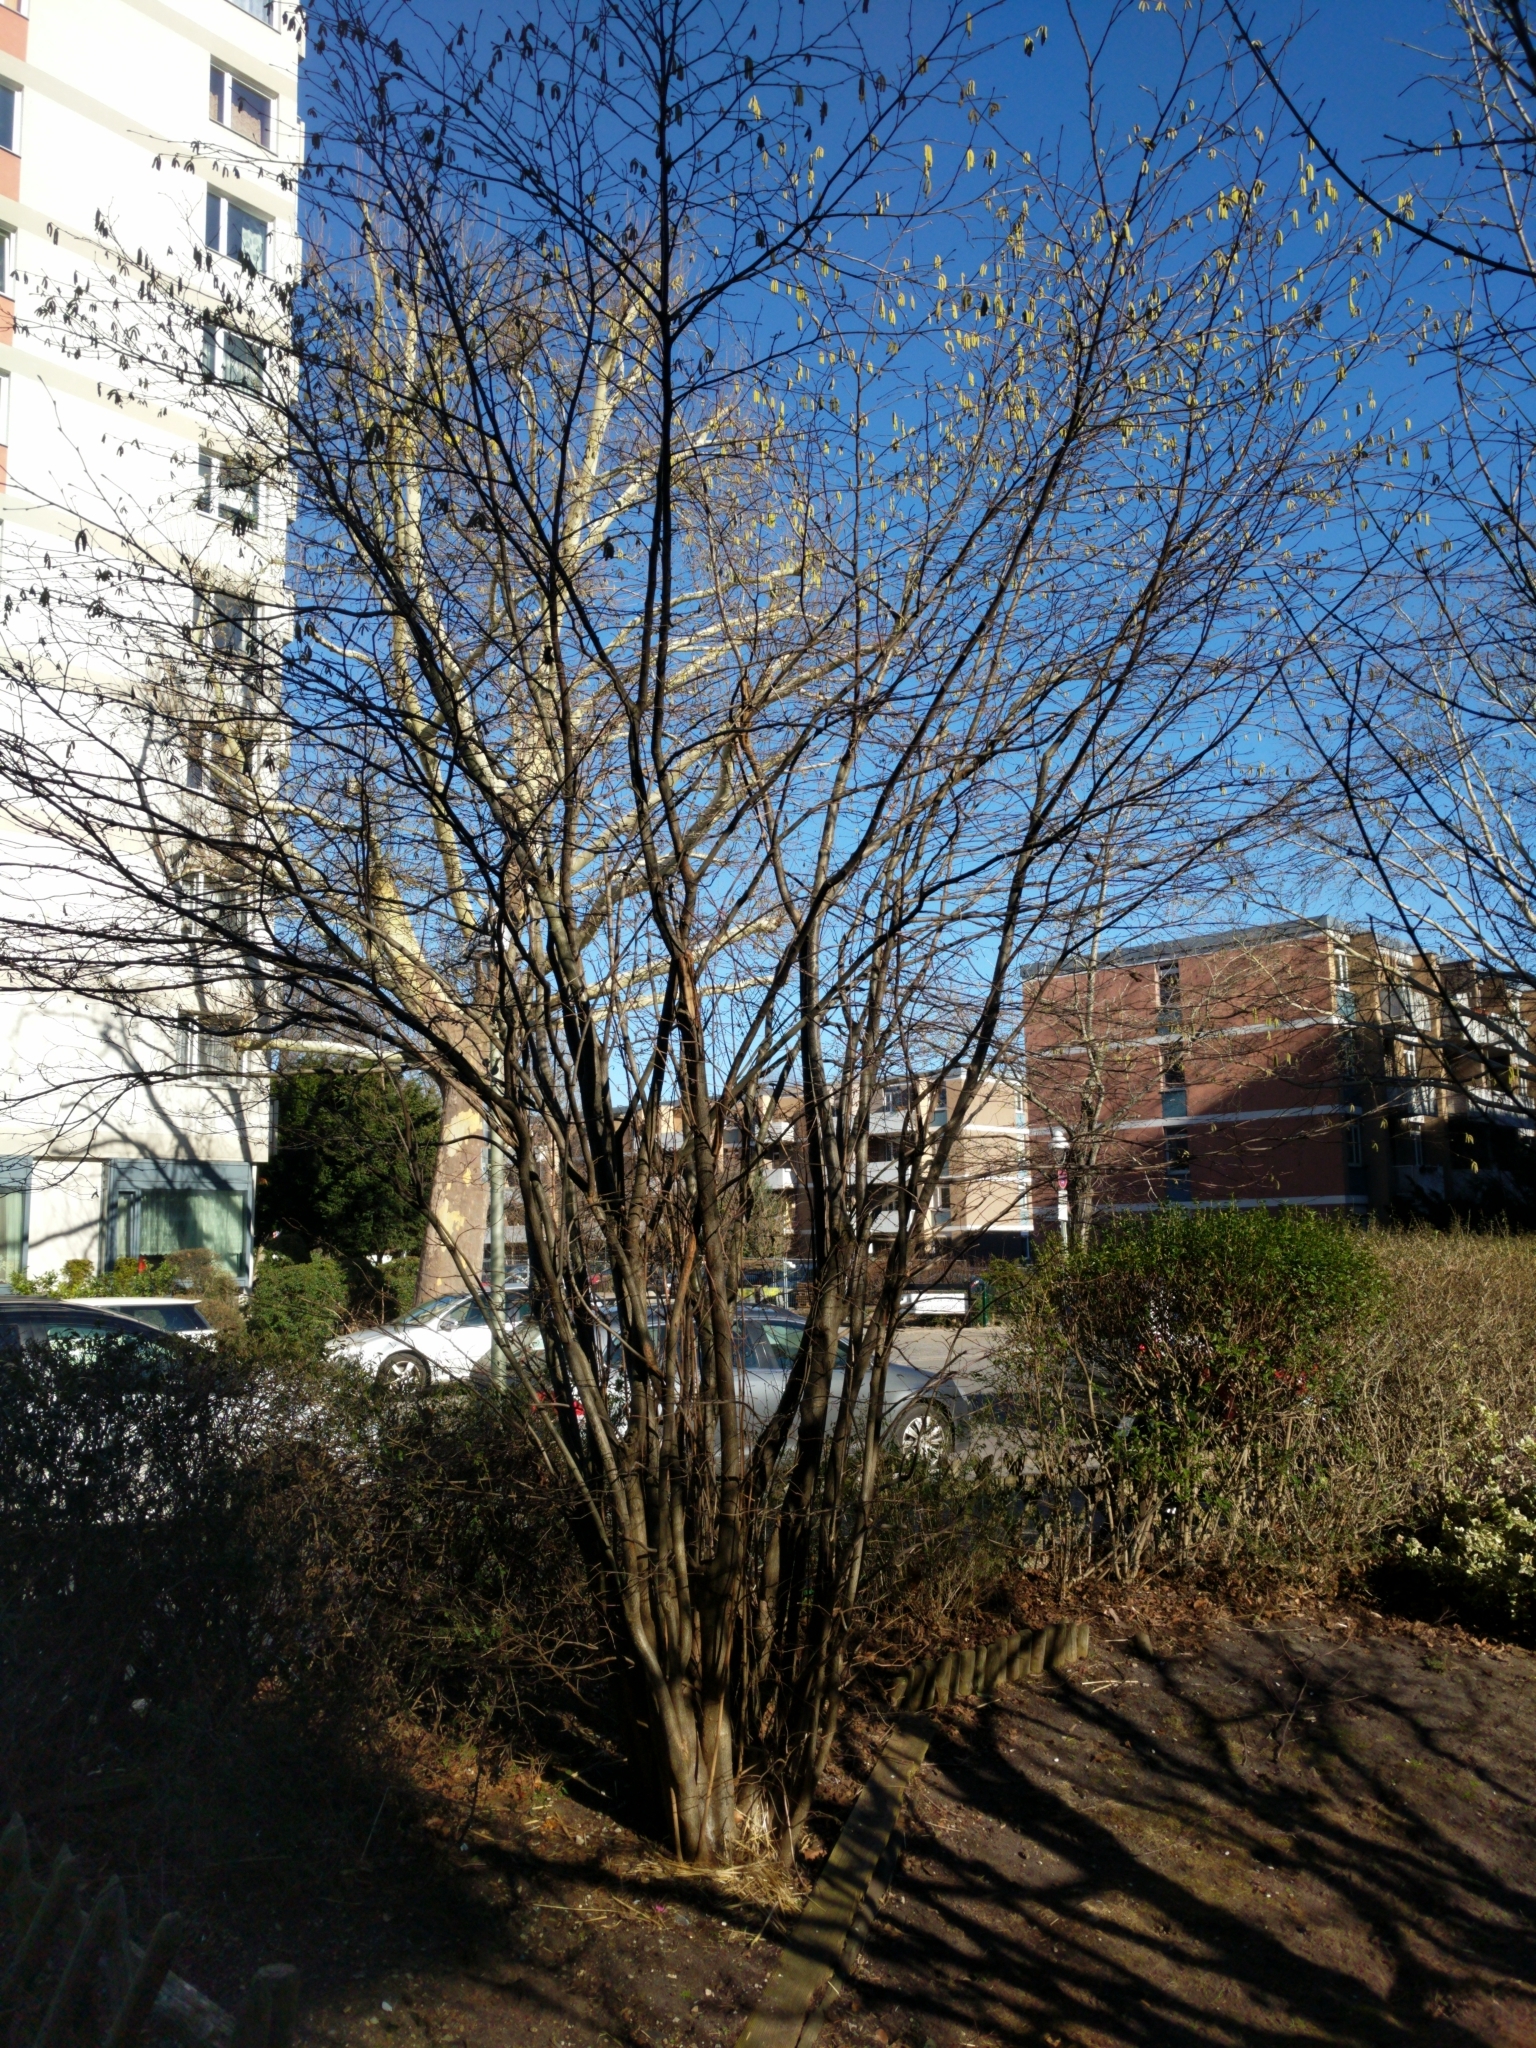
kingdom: Plantae
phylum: Tracheophyta
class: Magnoliopsida
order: Fagales
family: Betulaceae
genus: Corylus
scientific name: Corylus avellana
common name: European hazel
